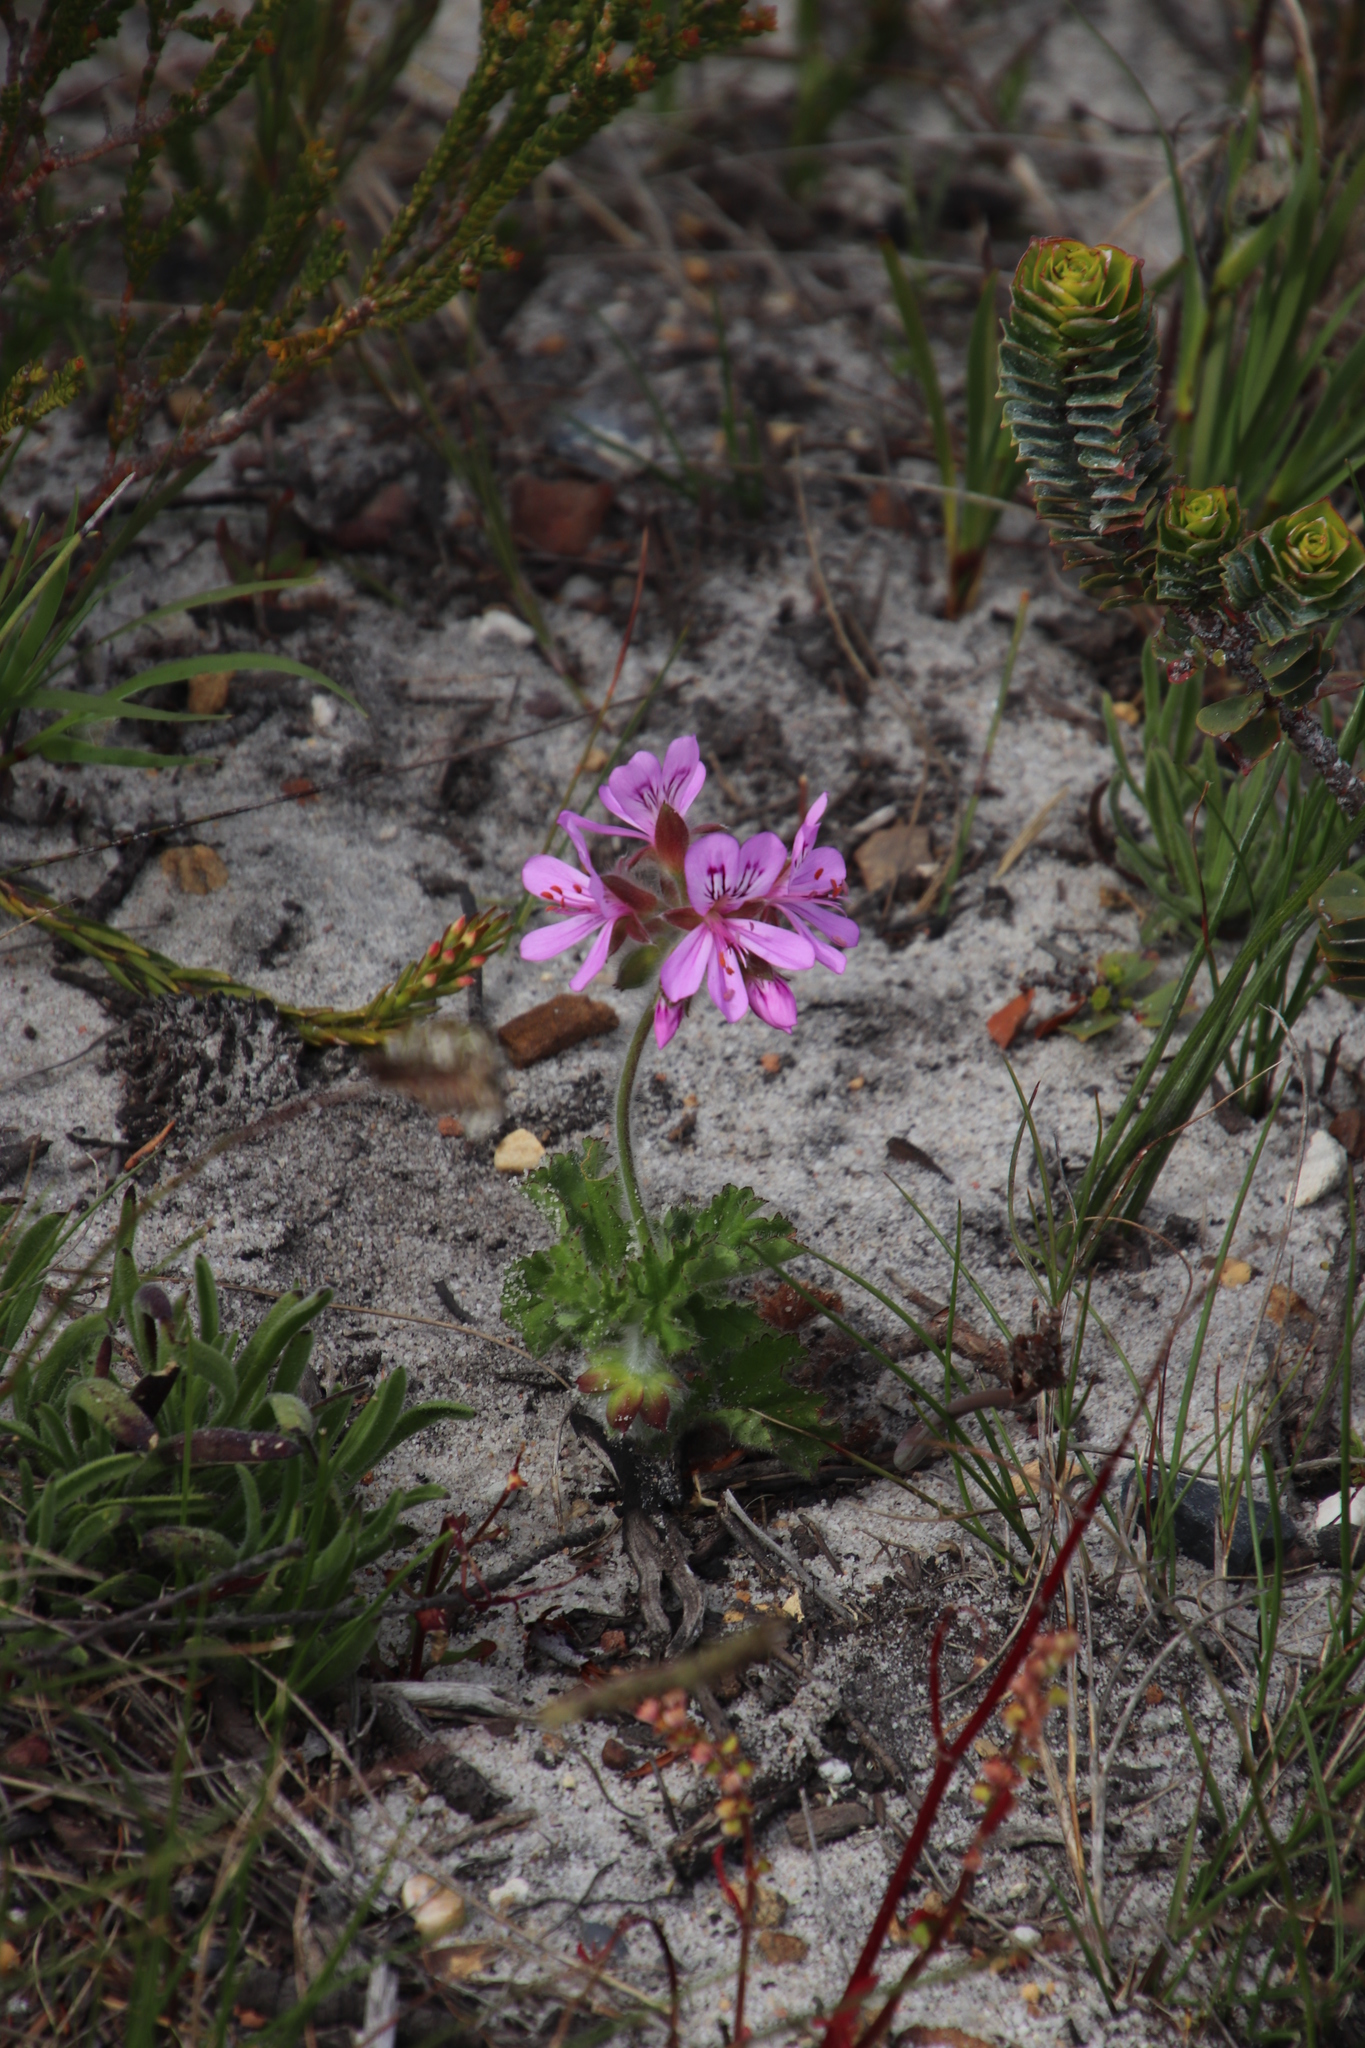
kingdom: Plantae
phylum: Tracheophyta
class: Magnoliopsida
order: Geraniales
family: Geraniaceae
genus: Pelargonium
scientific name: Pelargonium capitatum
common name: Rose scented geranium
